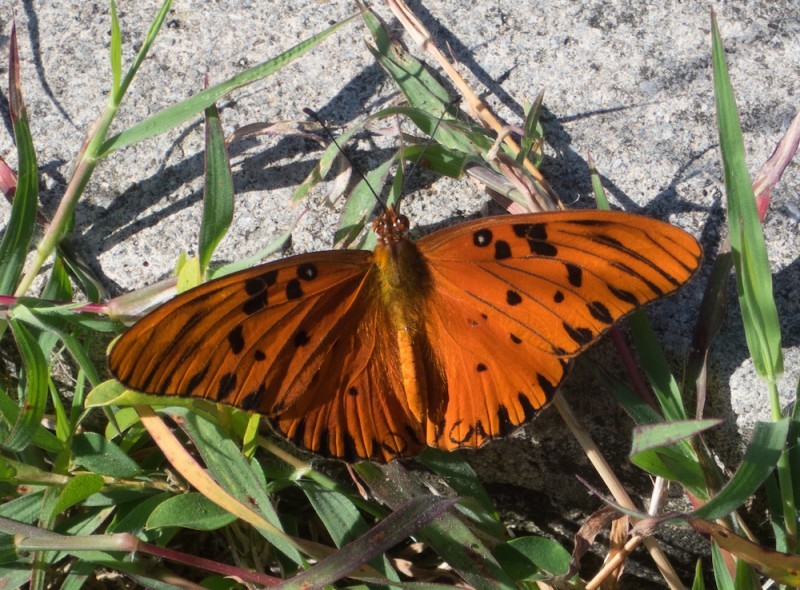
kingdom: Animalia
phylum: Arthropoda
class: Insecta
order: Lepidoptera
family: Nymphalidae
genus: Dione
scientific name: Dione vanillae
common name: Gulf fritillary
